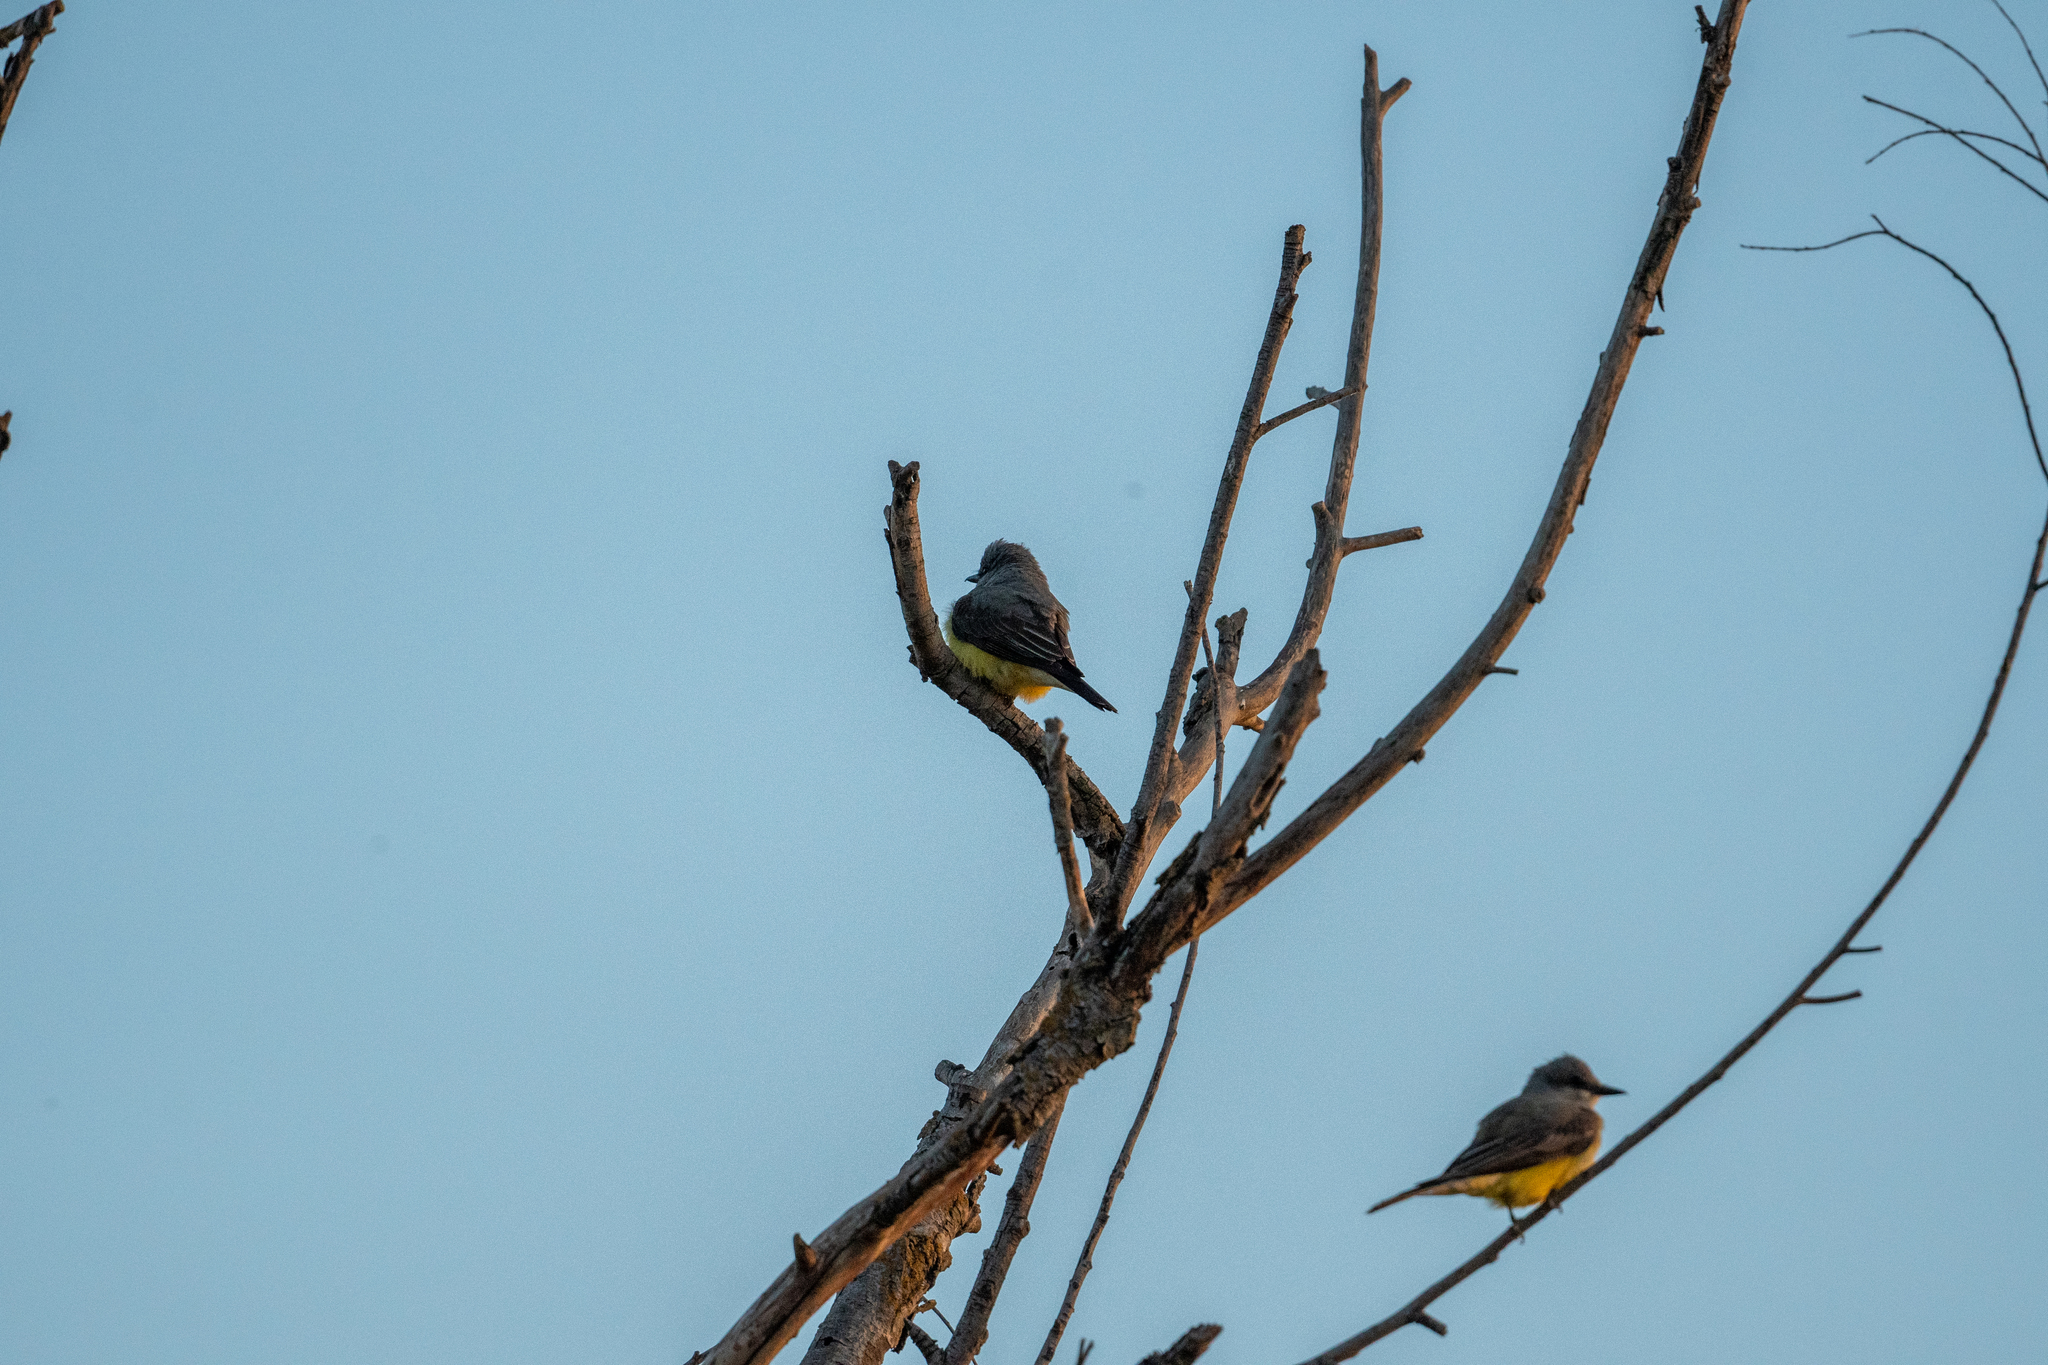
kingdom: Animalia
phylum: Chordata
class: Aves
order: Passeriformes
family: Tyrannidae
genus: Tyrannus
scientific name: Tyrannus verticalis
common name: Western kingbird
